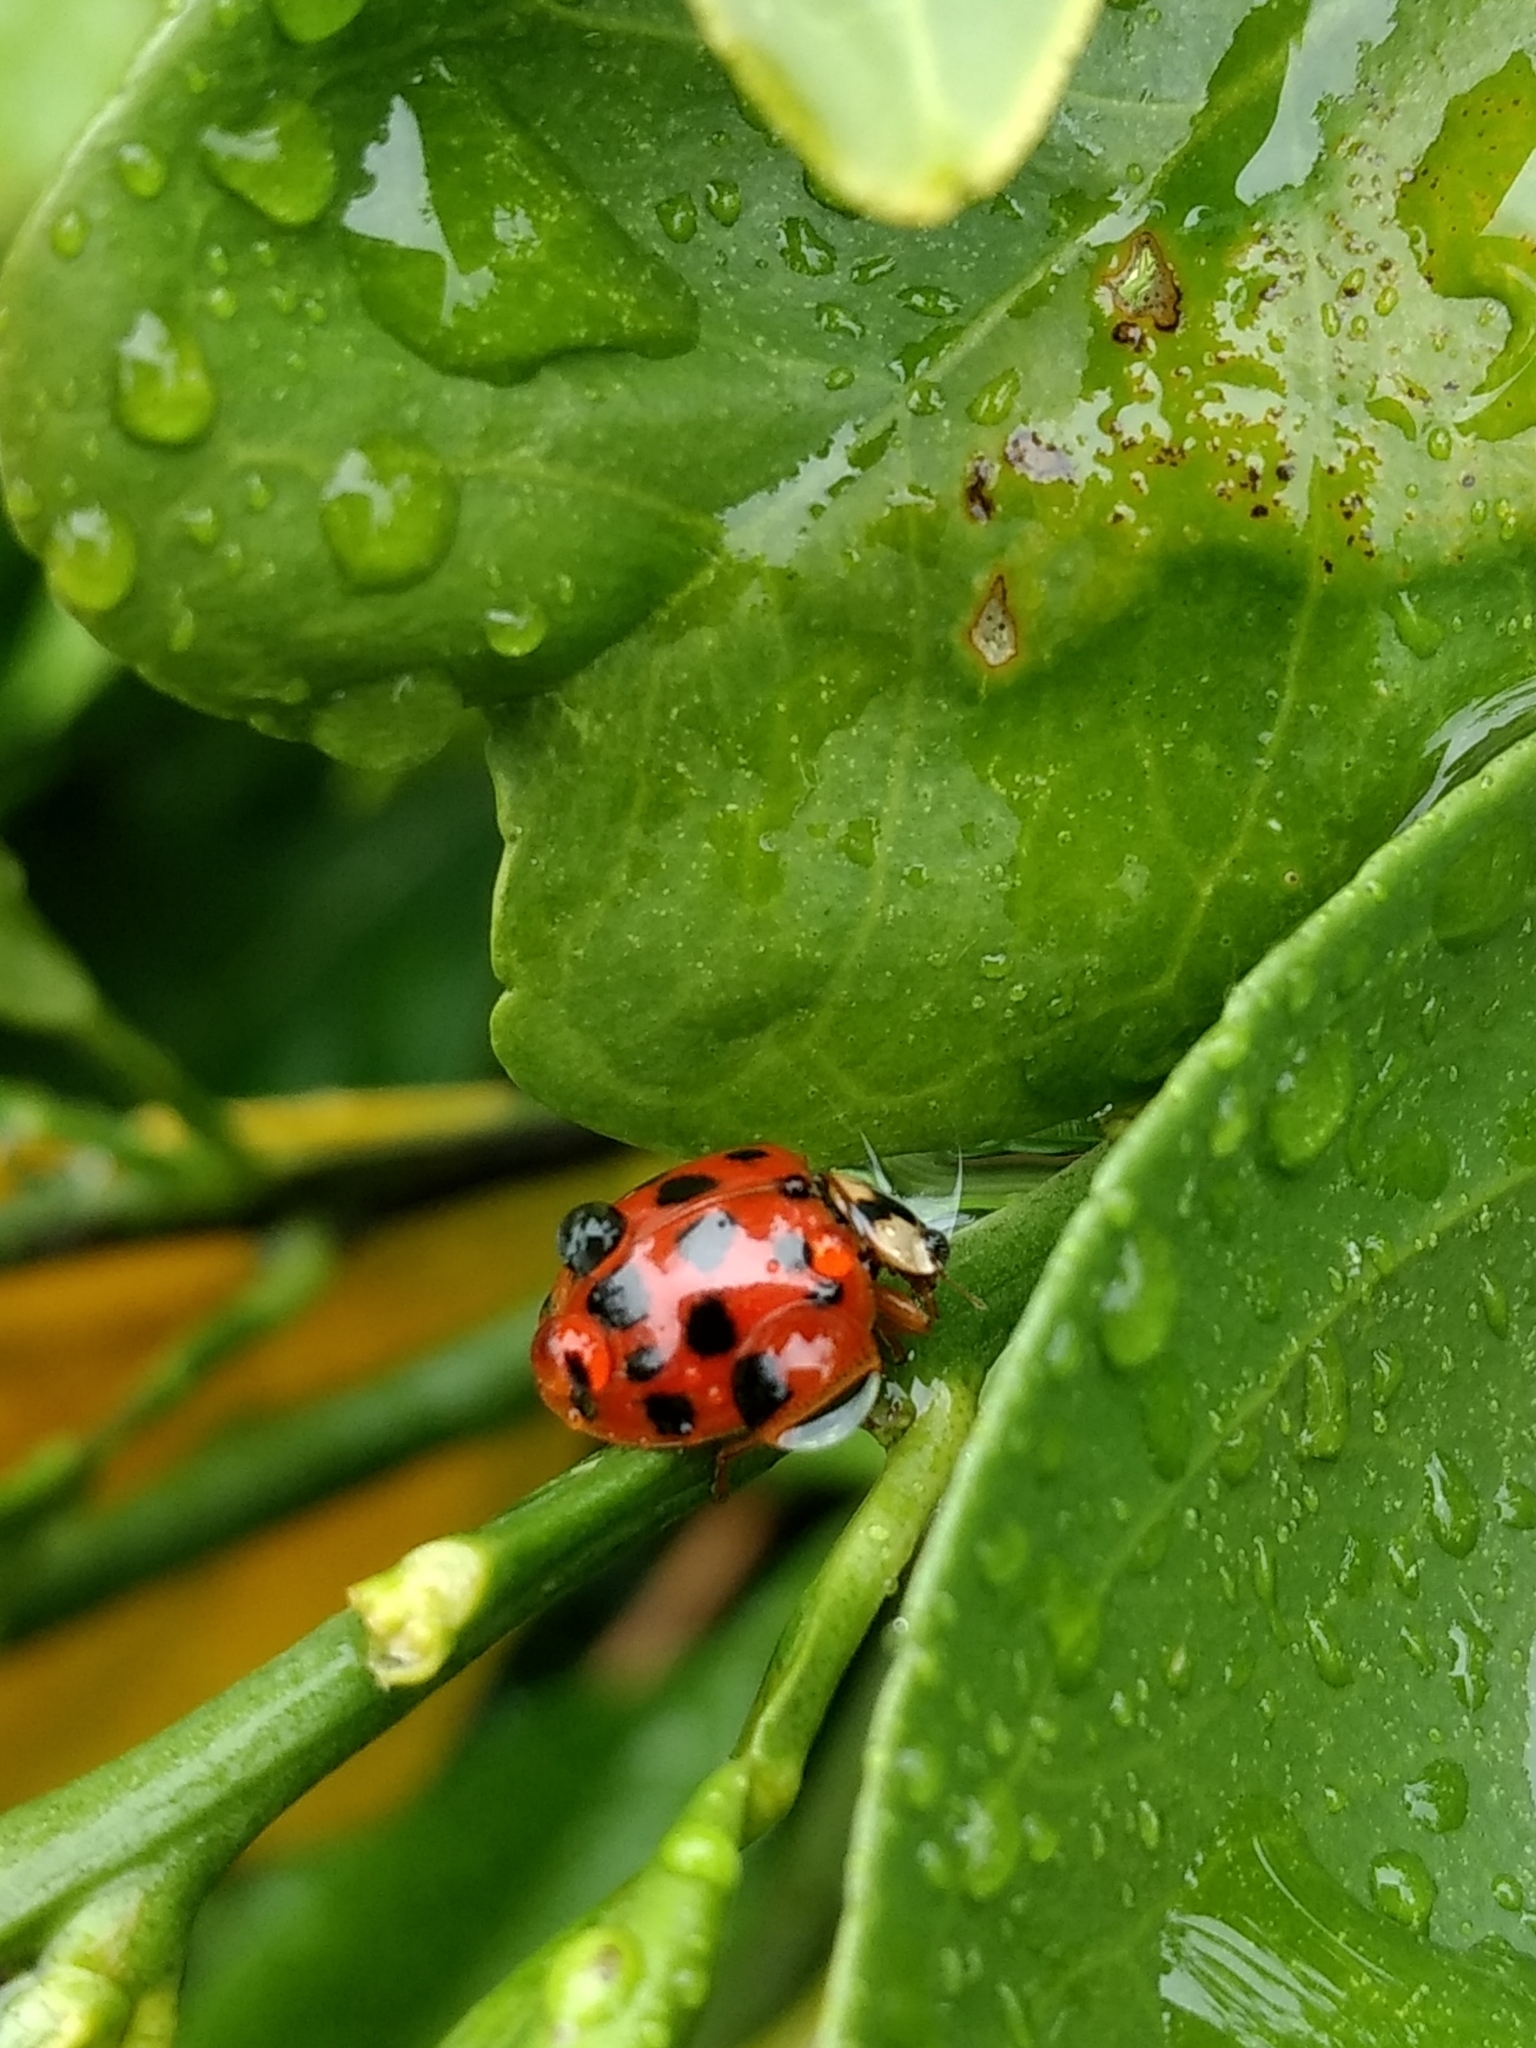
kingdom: Animalia
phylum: Arthropoda
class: Insecta
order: Coleoptera
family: Coccinellidae
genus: Harmonia
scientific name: Harmonia axyridis
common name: Harlequin ladybird
